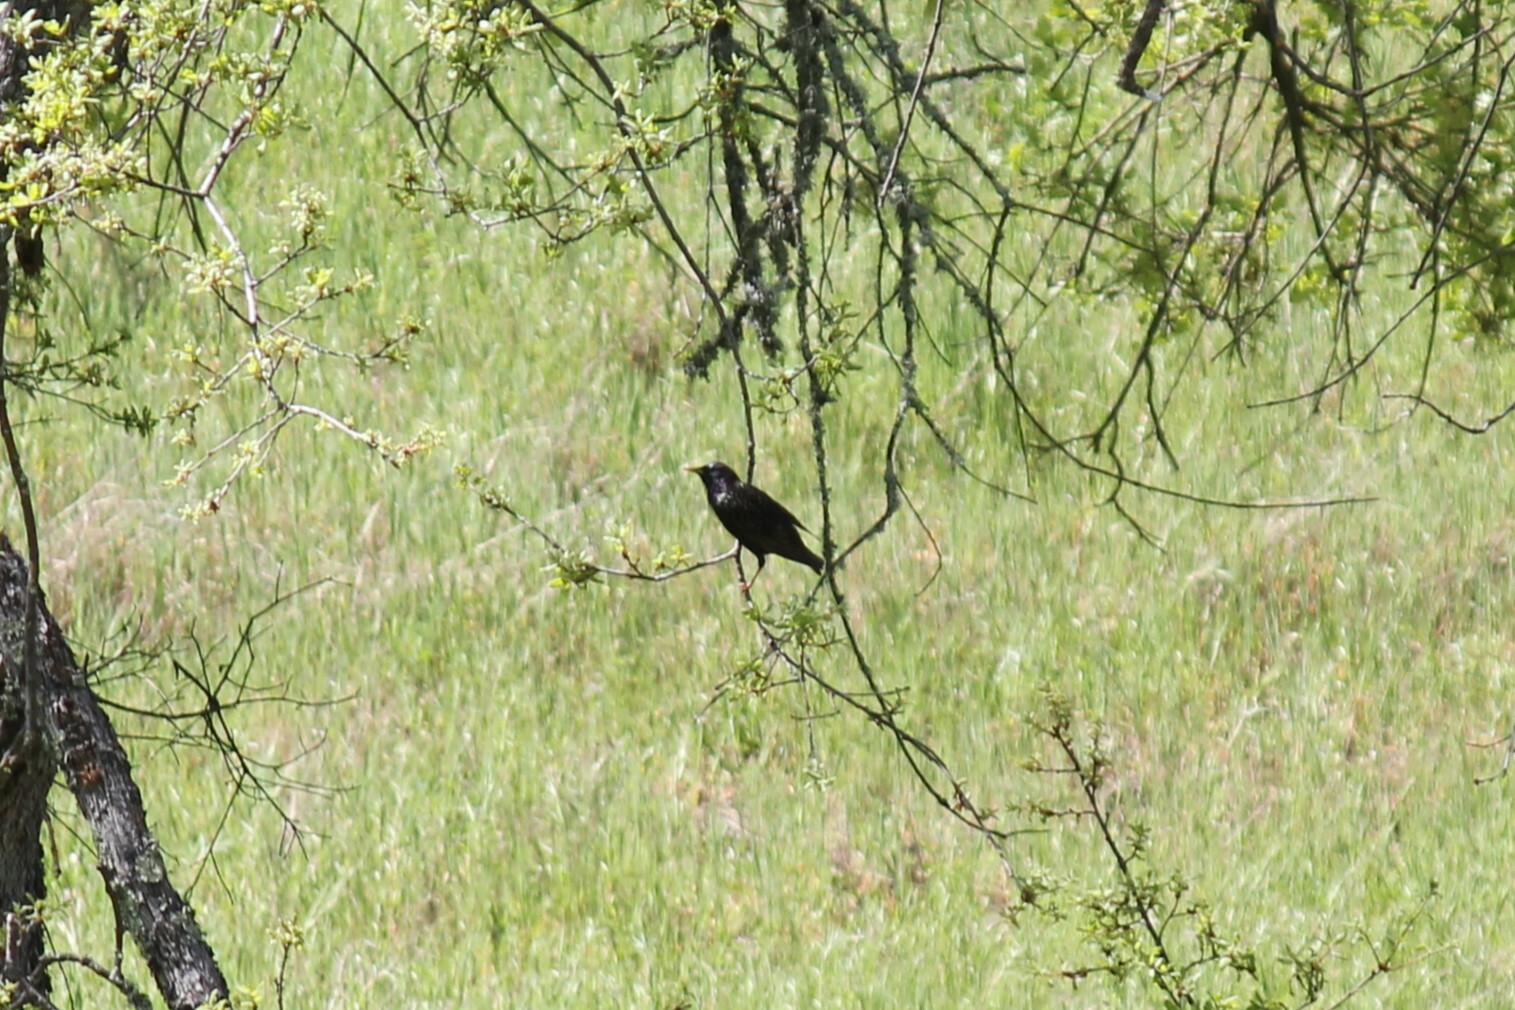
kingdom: Animalia
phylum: Chordata
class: Aves
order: Passeriformes
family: Sturnidae
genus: Sturnus
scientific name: Sturnus vulgaris
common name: Common starling
